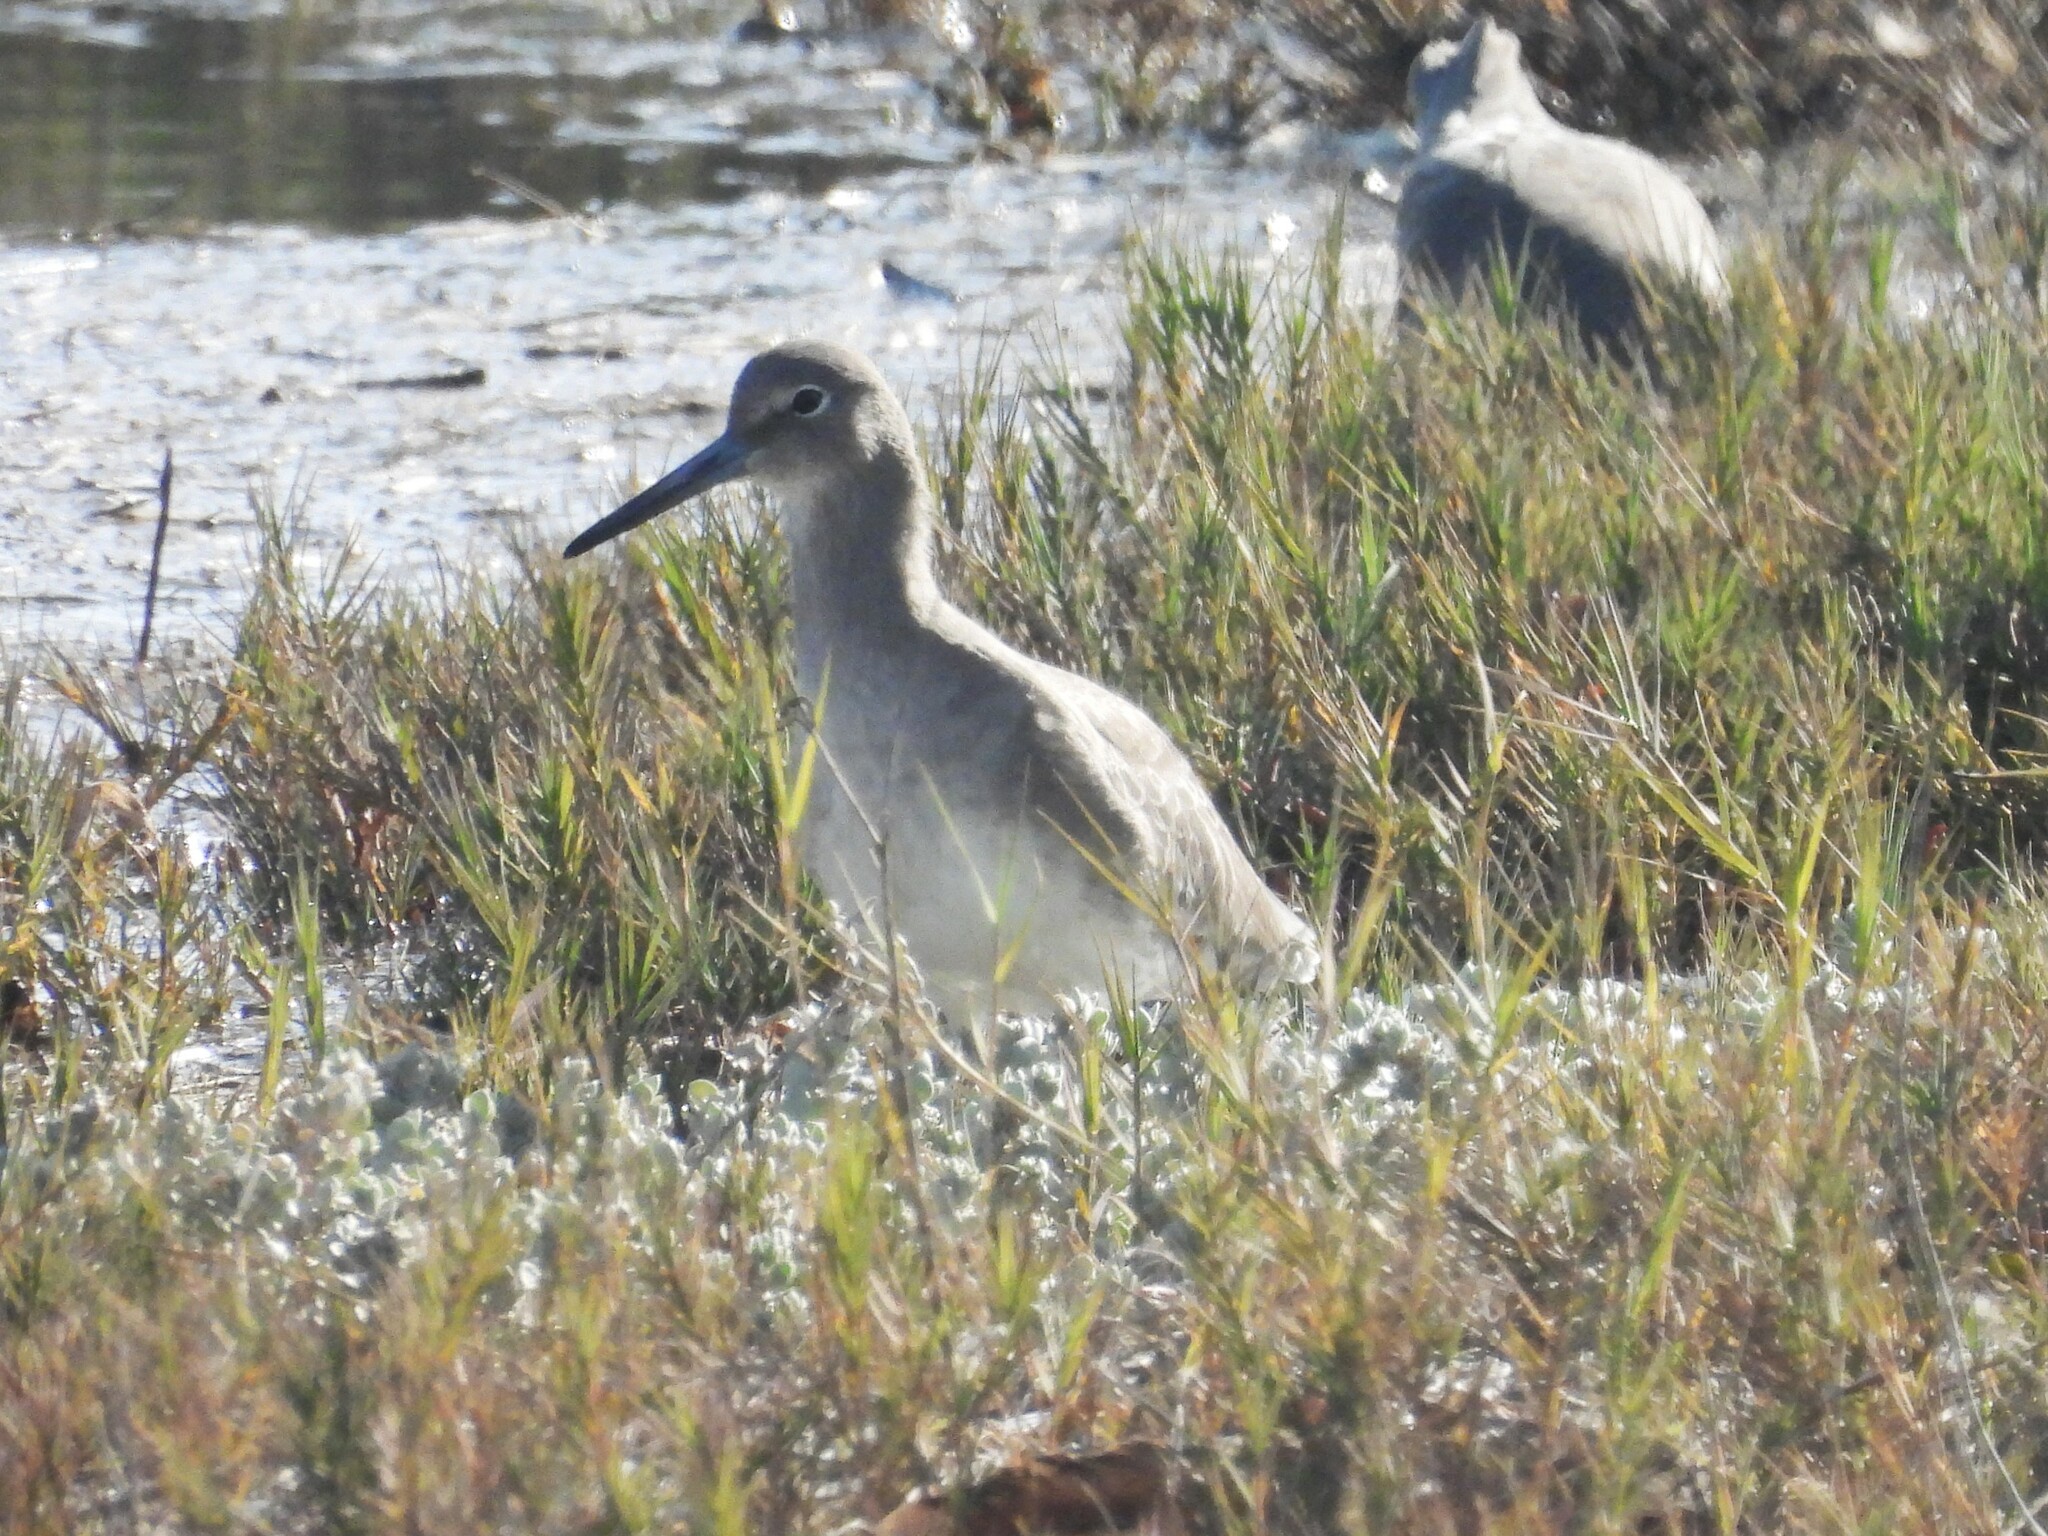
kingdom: Animalia
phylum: Chordata
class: Aves
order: Charadriiformes
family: Scolopacidae
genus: Tringa
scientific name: Tringa semipalmata
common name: Willet
